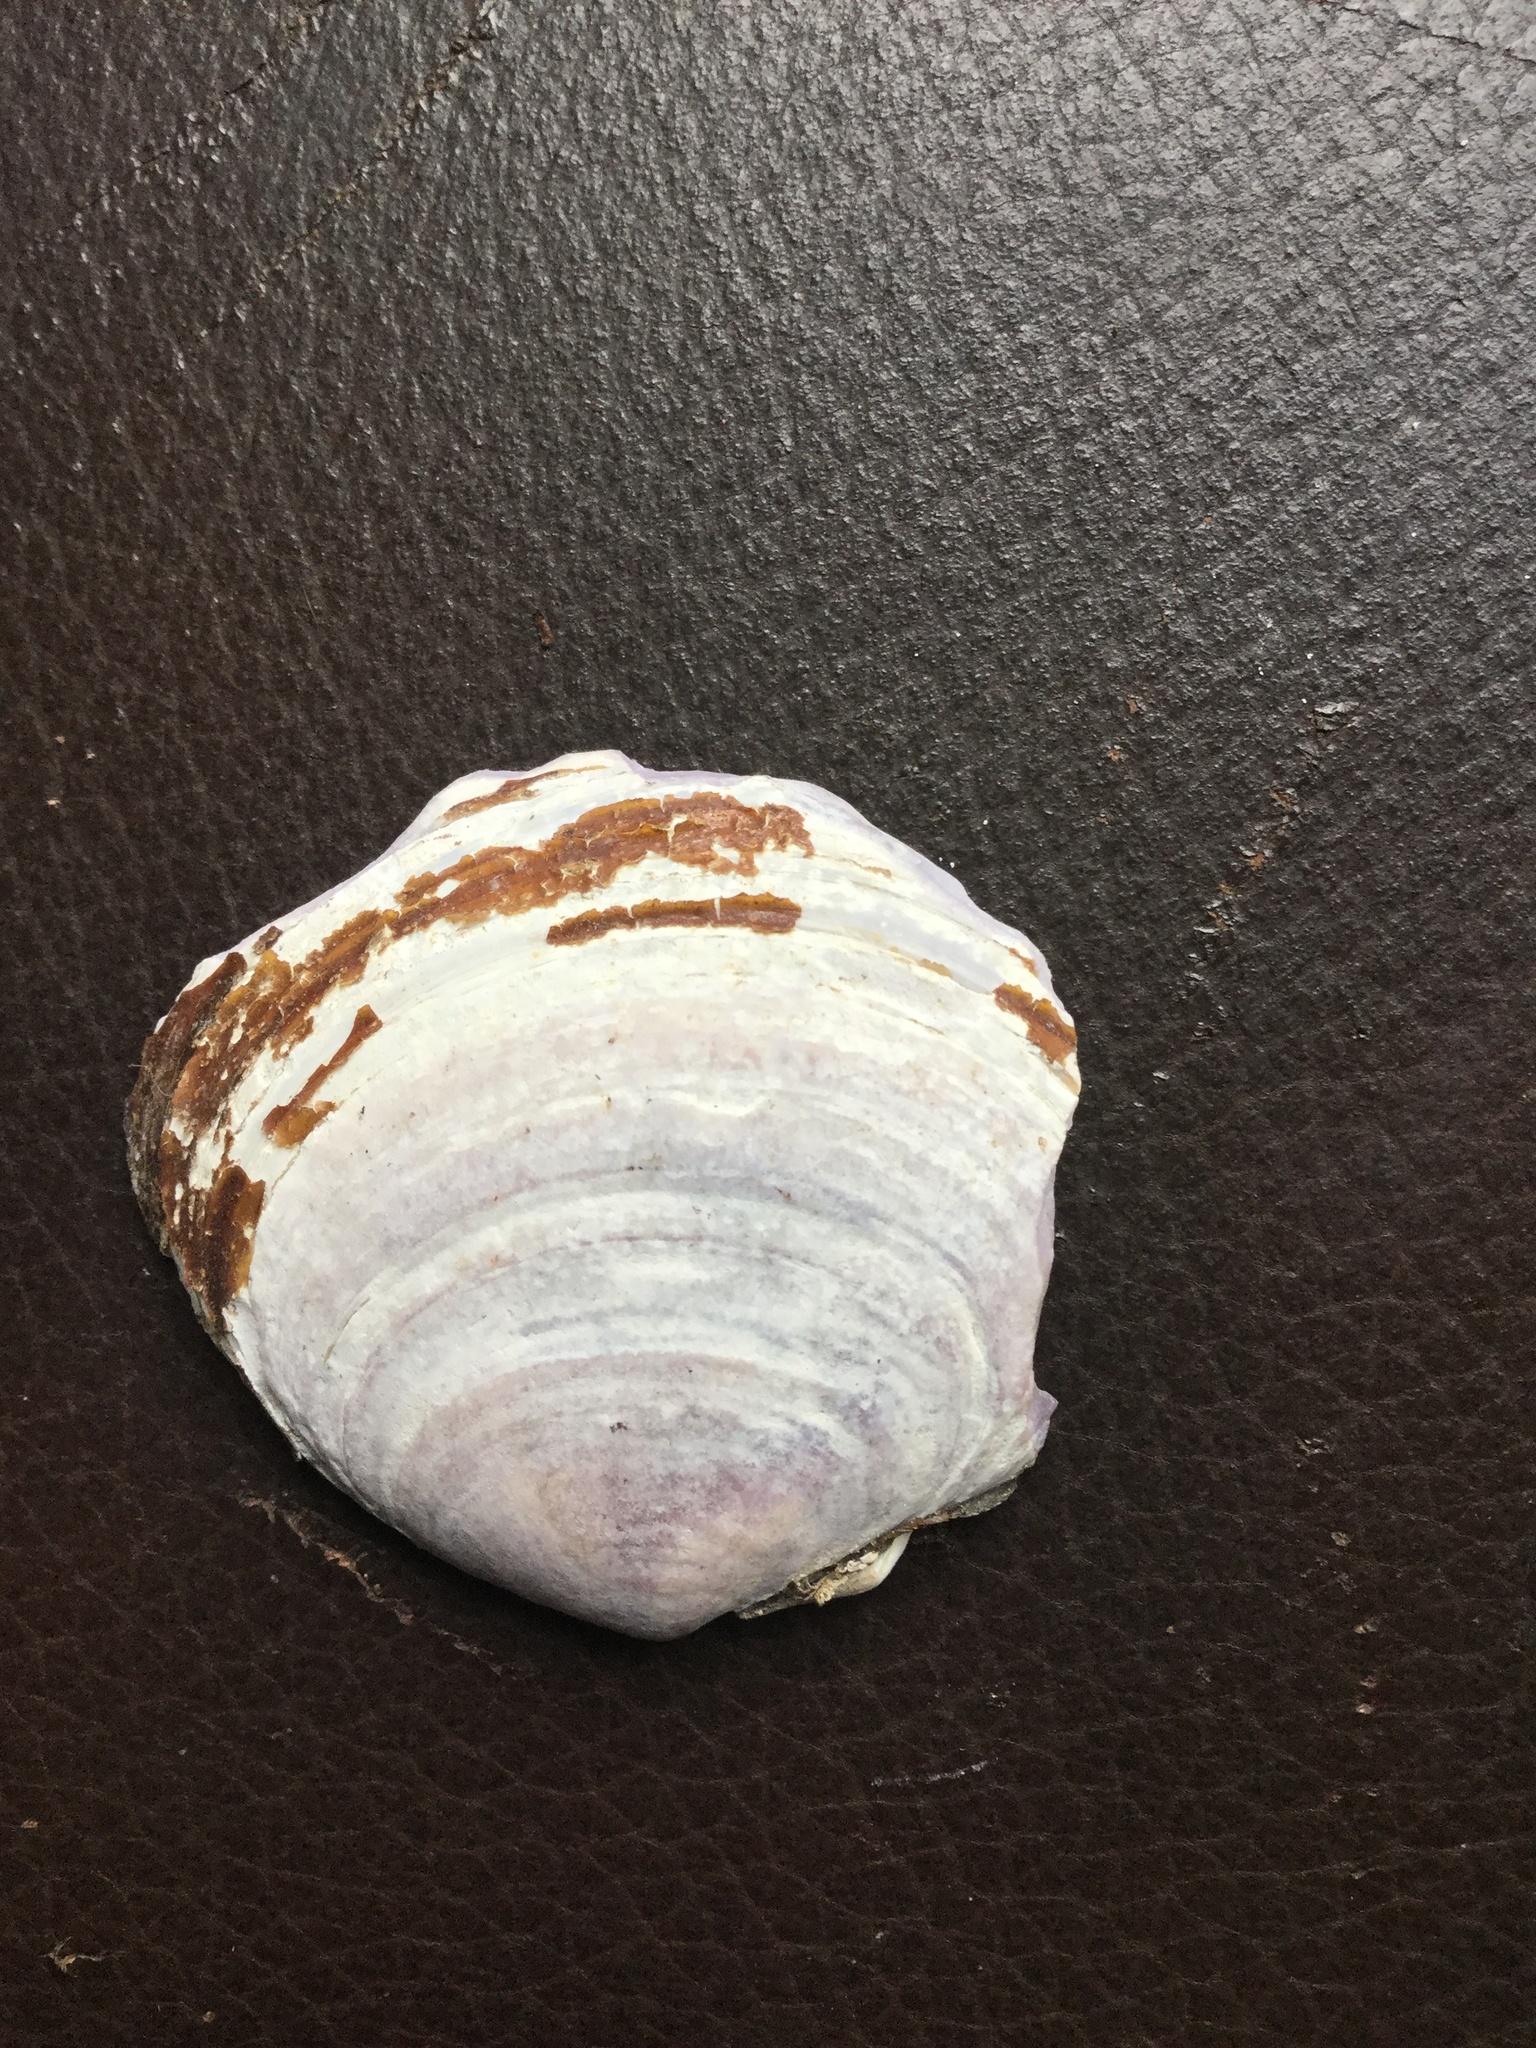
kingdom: Animalia
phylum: Mollusca
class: Bivalvia
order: Cardiida
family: Psammobiidae
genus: Nuttallia
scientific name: Nuttallia obscurata
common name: Purple mahogany-clam
